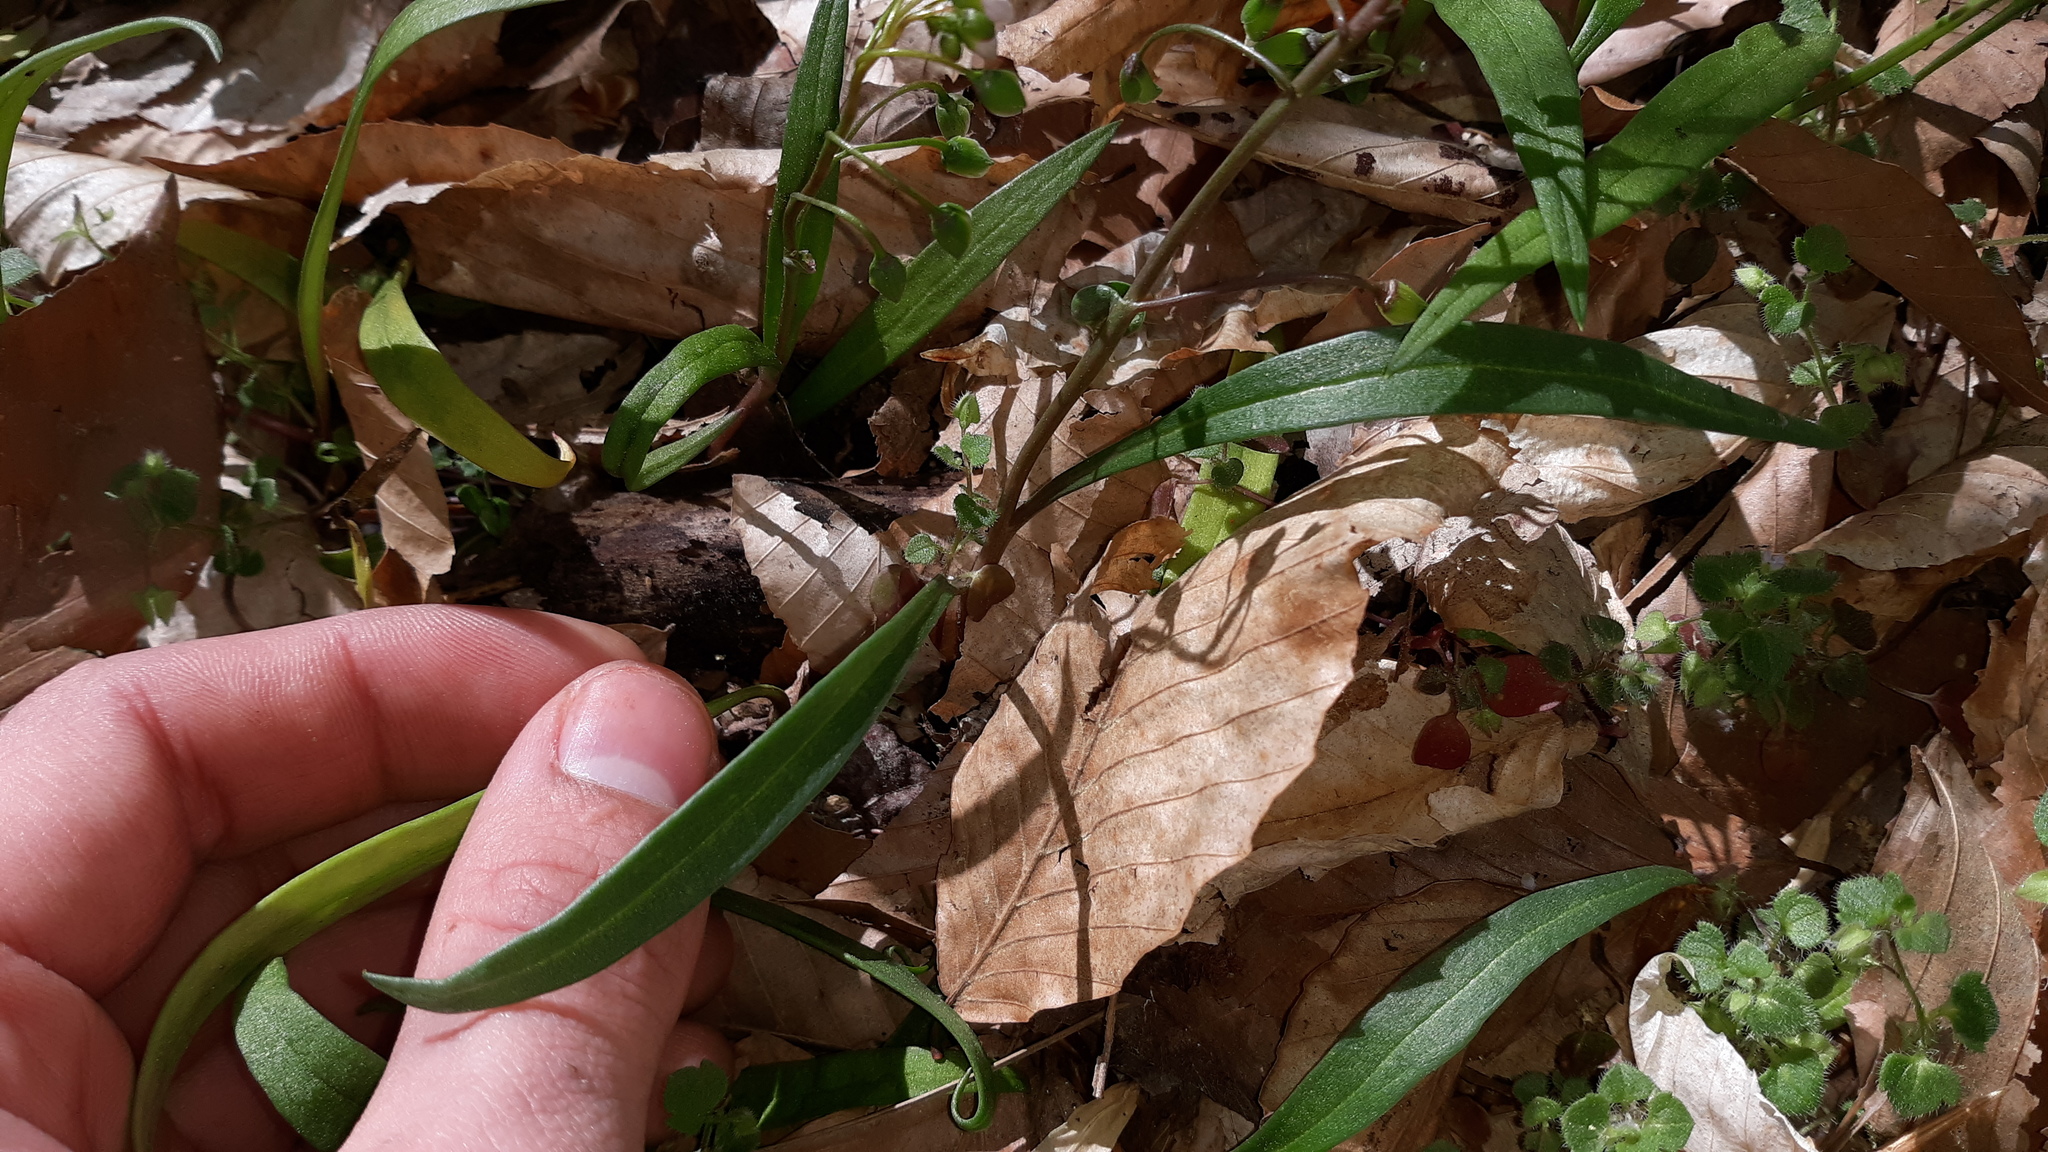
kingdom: Plantae
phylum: Tracheophyta
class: Magnoliopsida
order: Caryophyllales
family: Montiaceae
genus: Claytonia
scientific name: Claytonia virginica
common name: Virginia springbeauty
